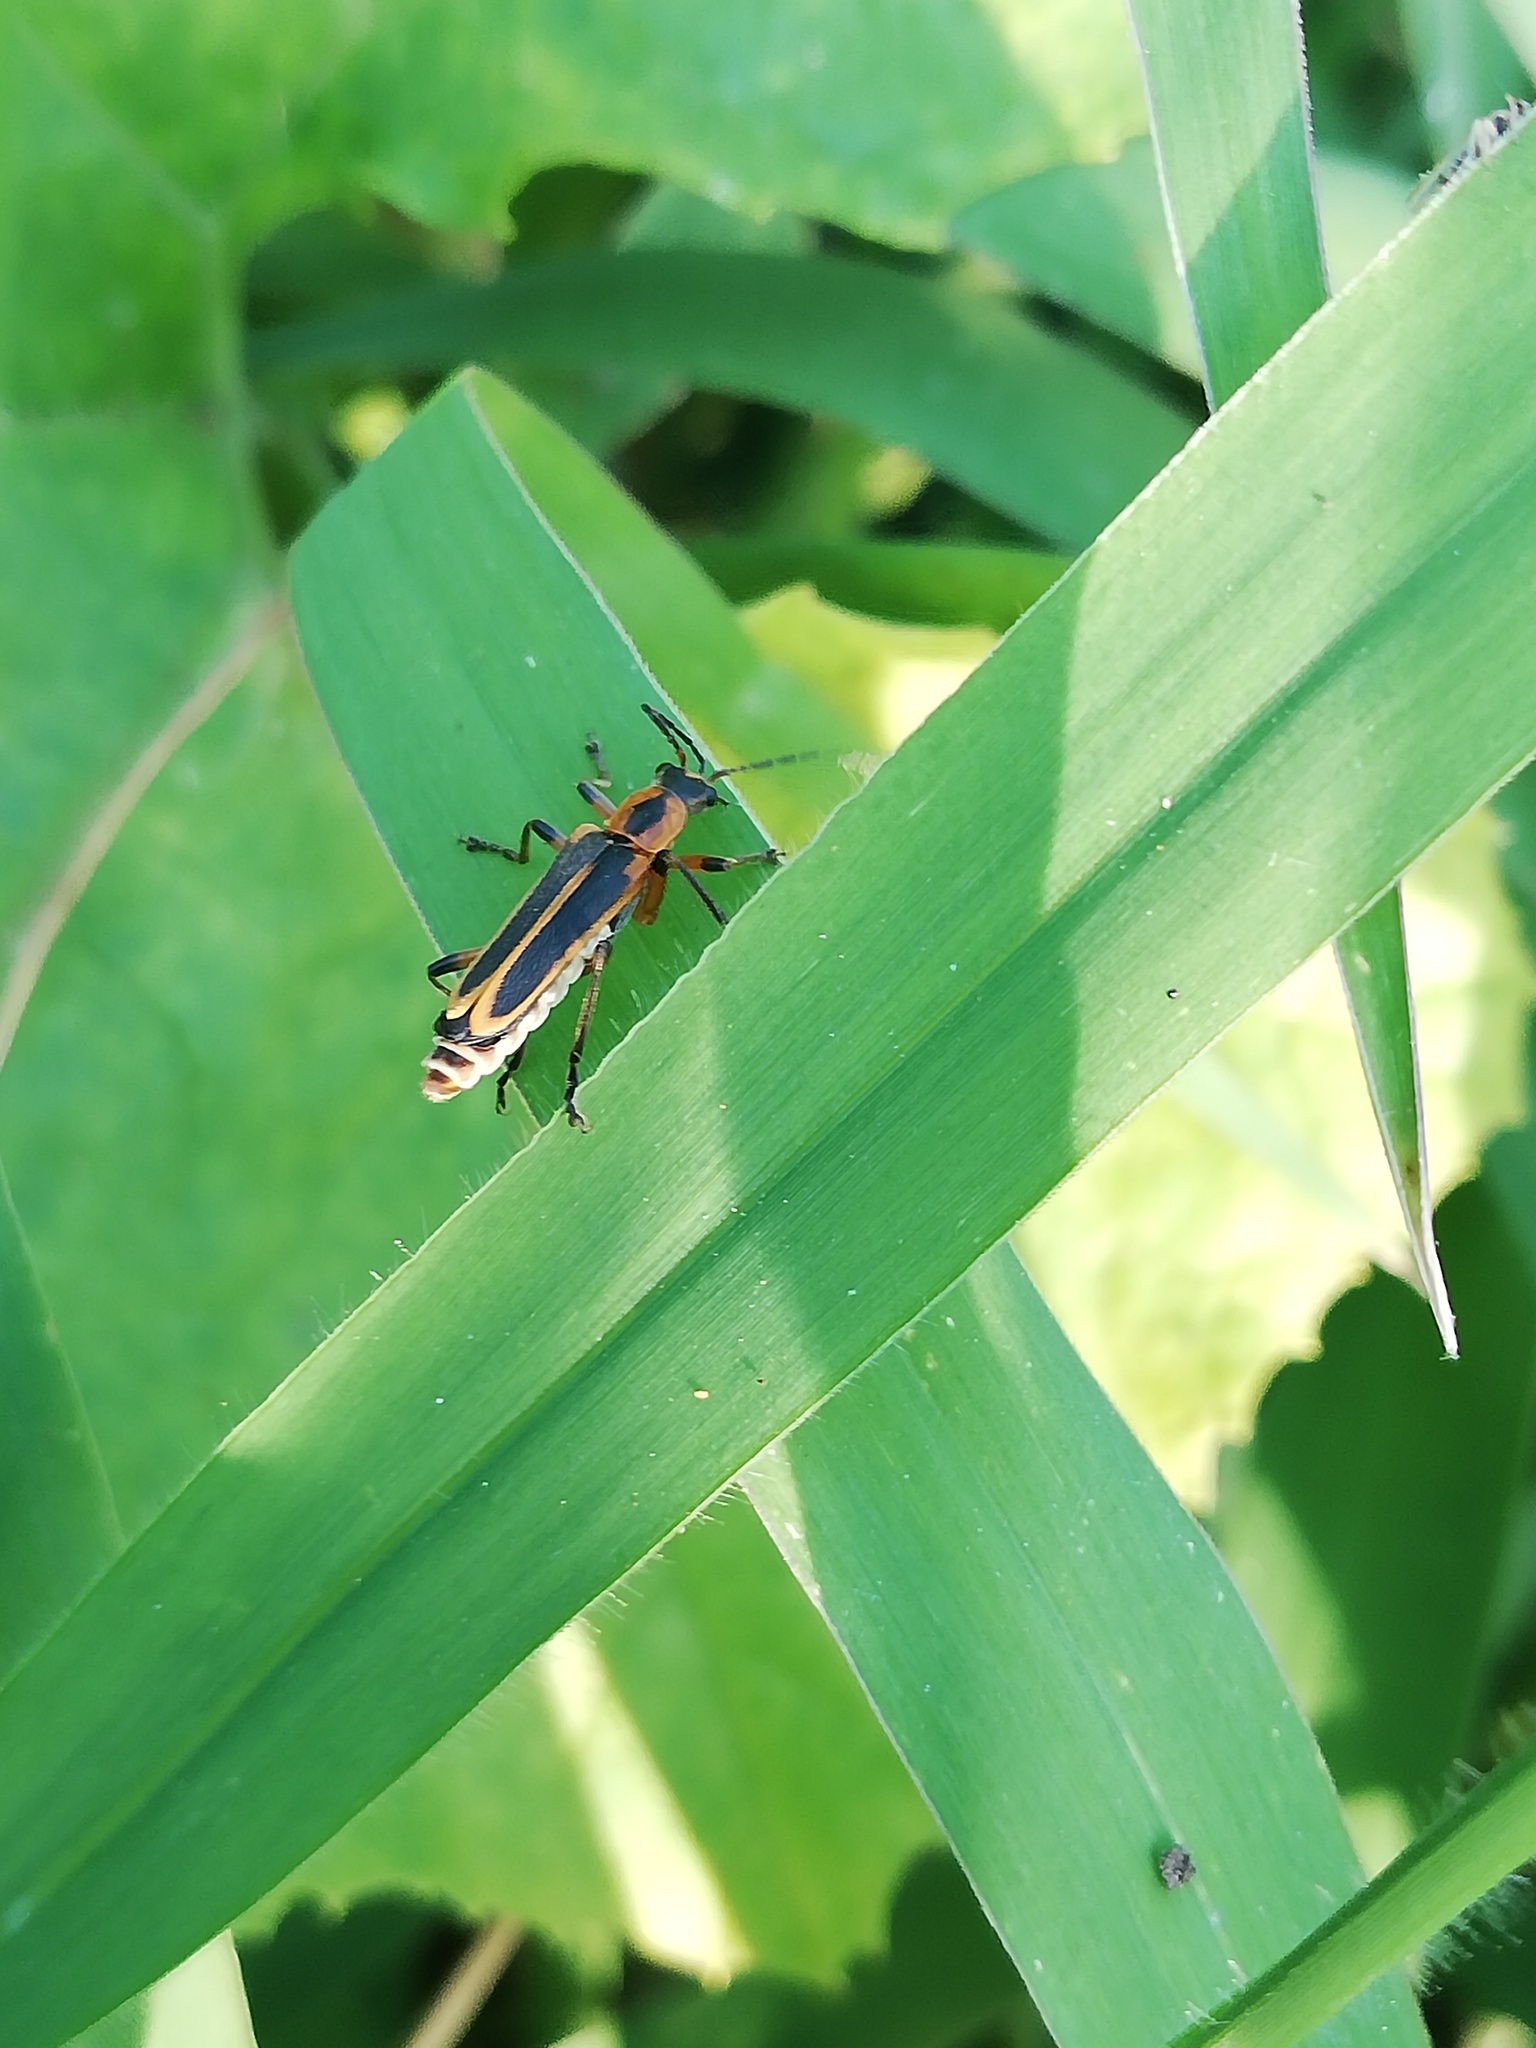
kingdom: Animalia
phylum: Arthropoda
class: Insecta
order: Coleoptera
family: Cantharidae
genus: Chauliognathus
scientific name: Chauliognathus marginatus
